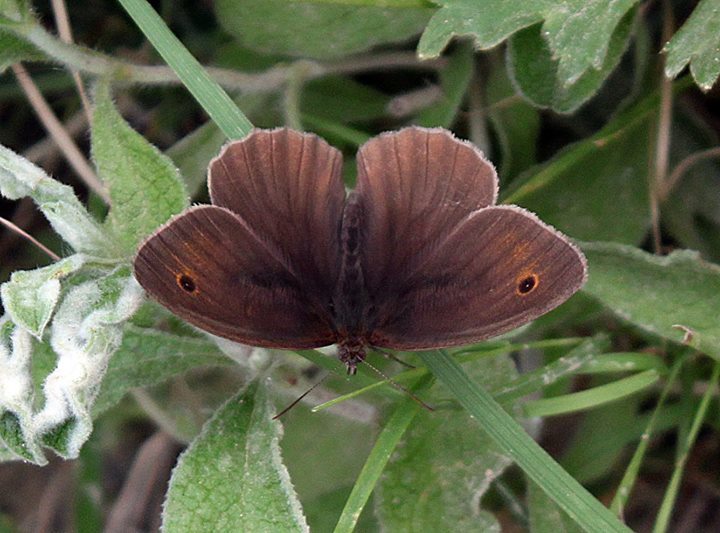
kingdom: Animalia
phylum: Arthropoda
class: Insecta
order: Lepidoptera
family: Nymphalidae
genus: Maniola
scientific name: Maniola jurtina
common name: Meadow brown
